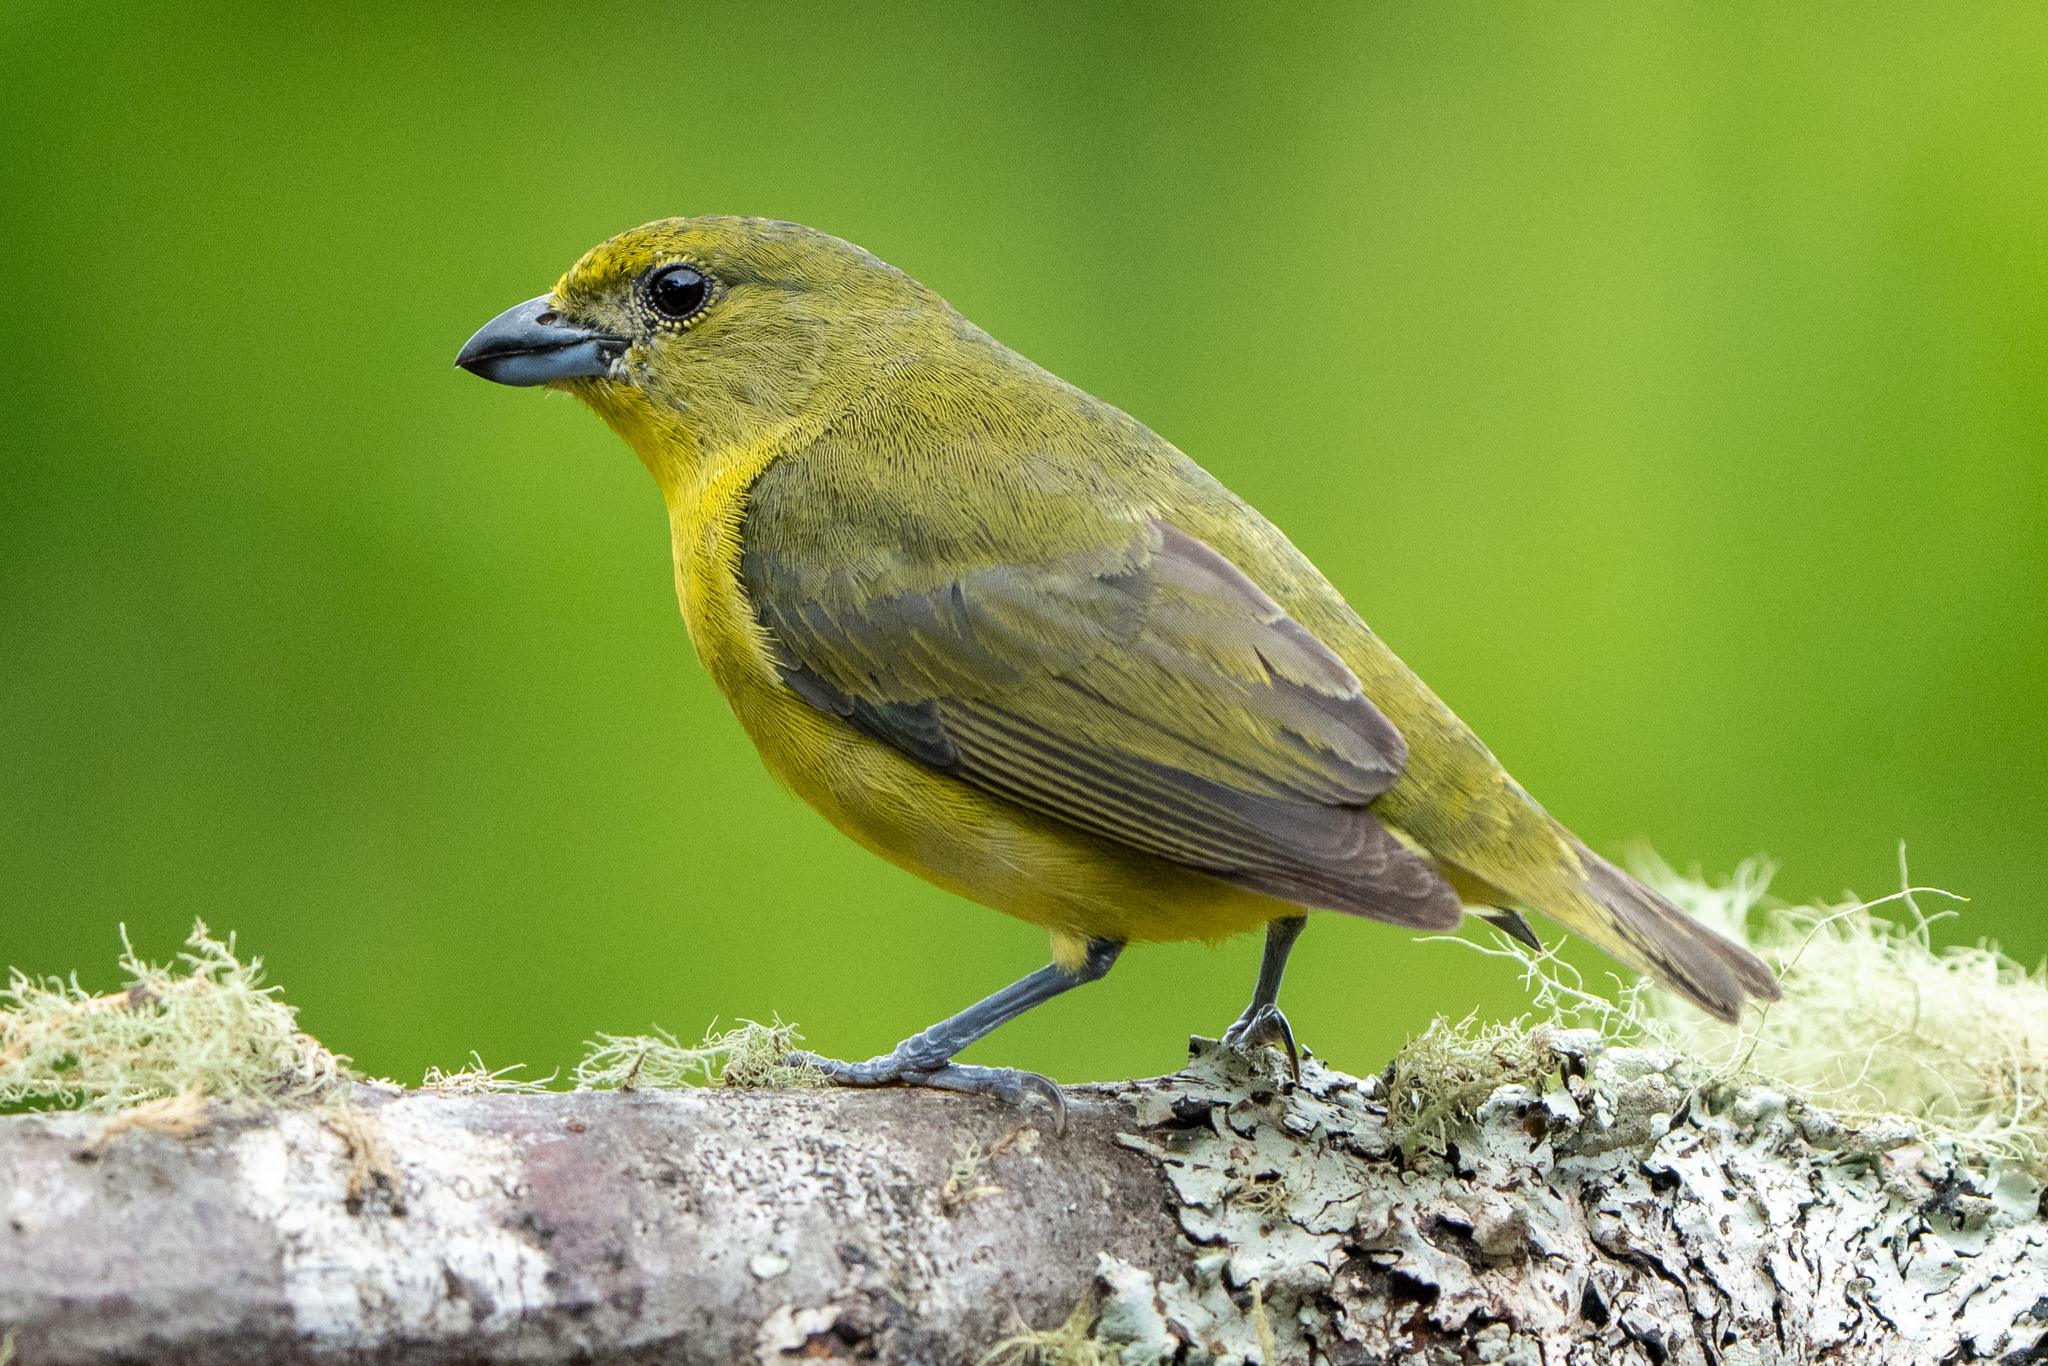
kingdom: Animalia
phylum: Chordata
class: Aves
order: Passeriformes
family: Fringillidae
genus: Euphonia
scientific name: Euphonia laniirostris
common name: Thick-billed euphonia
